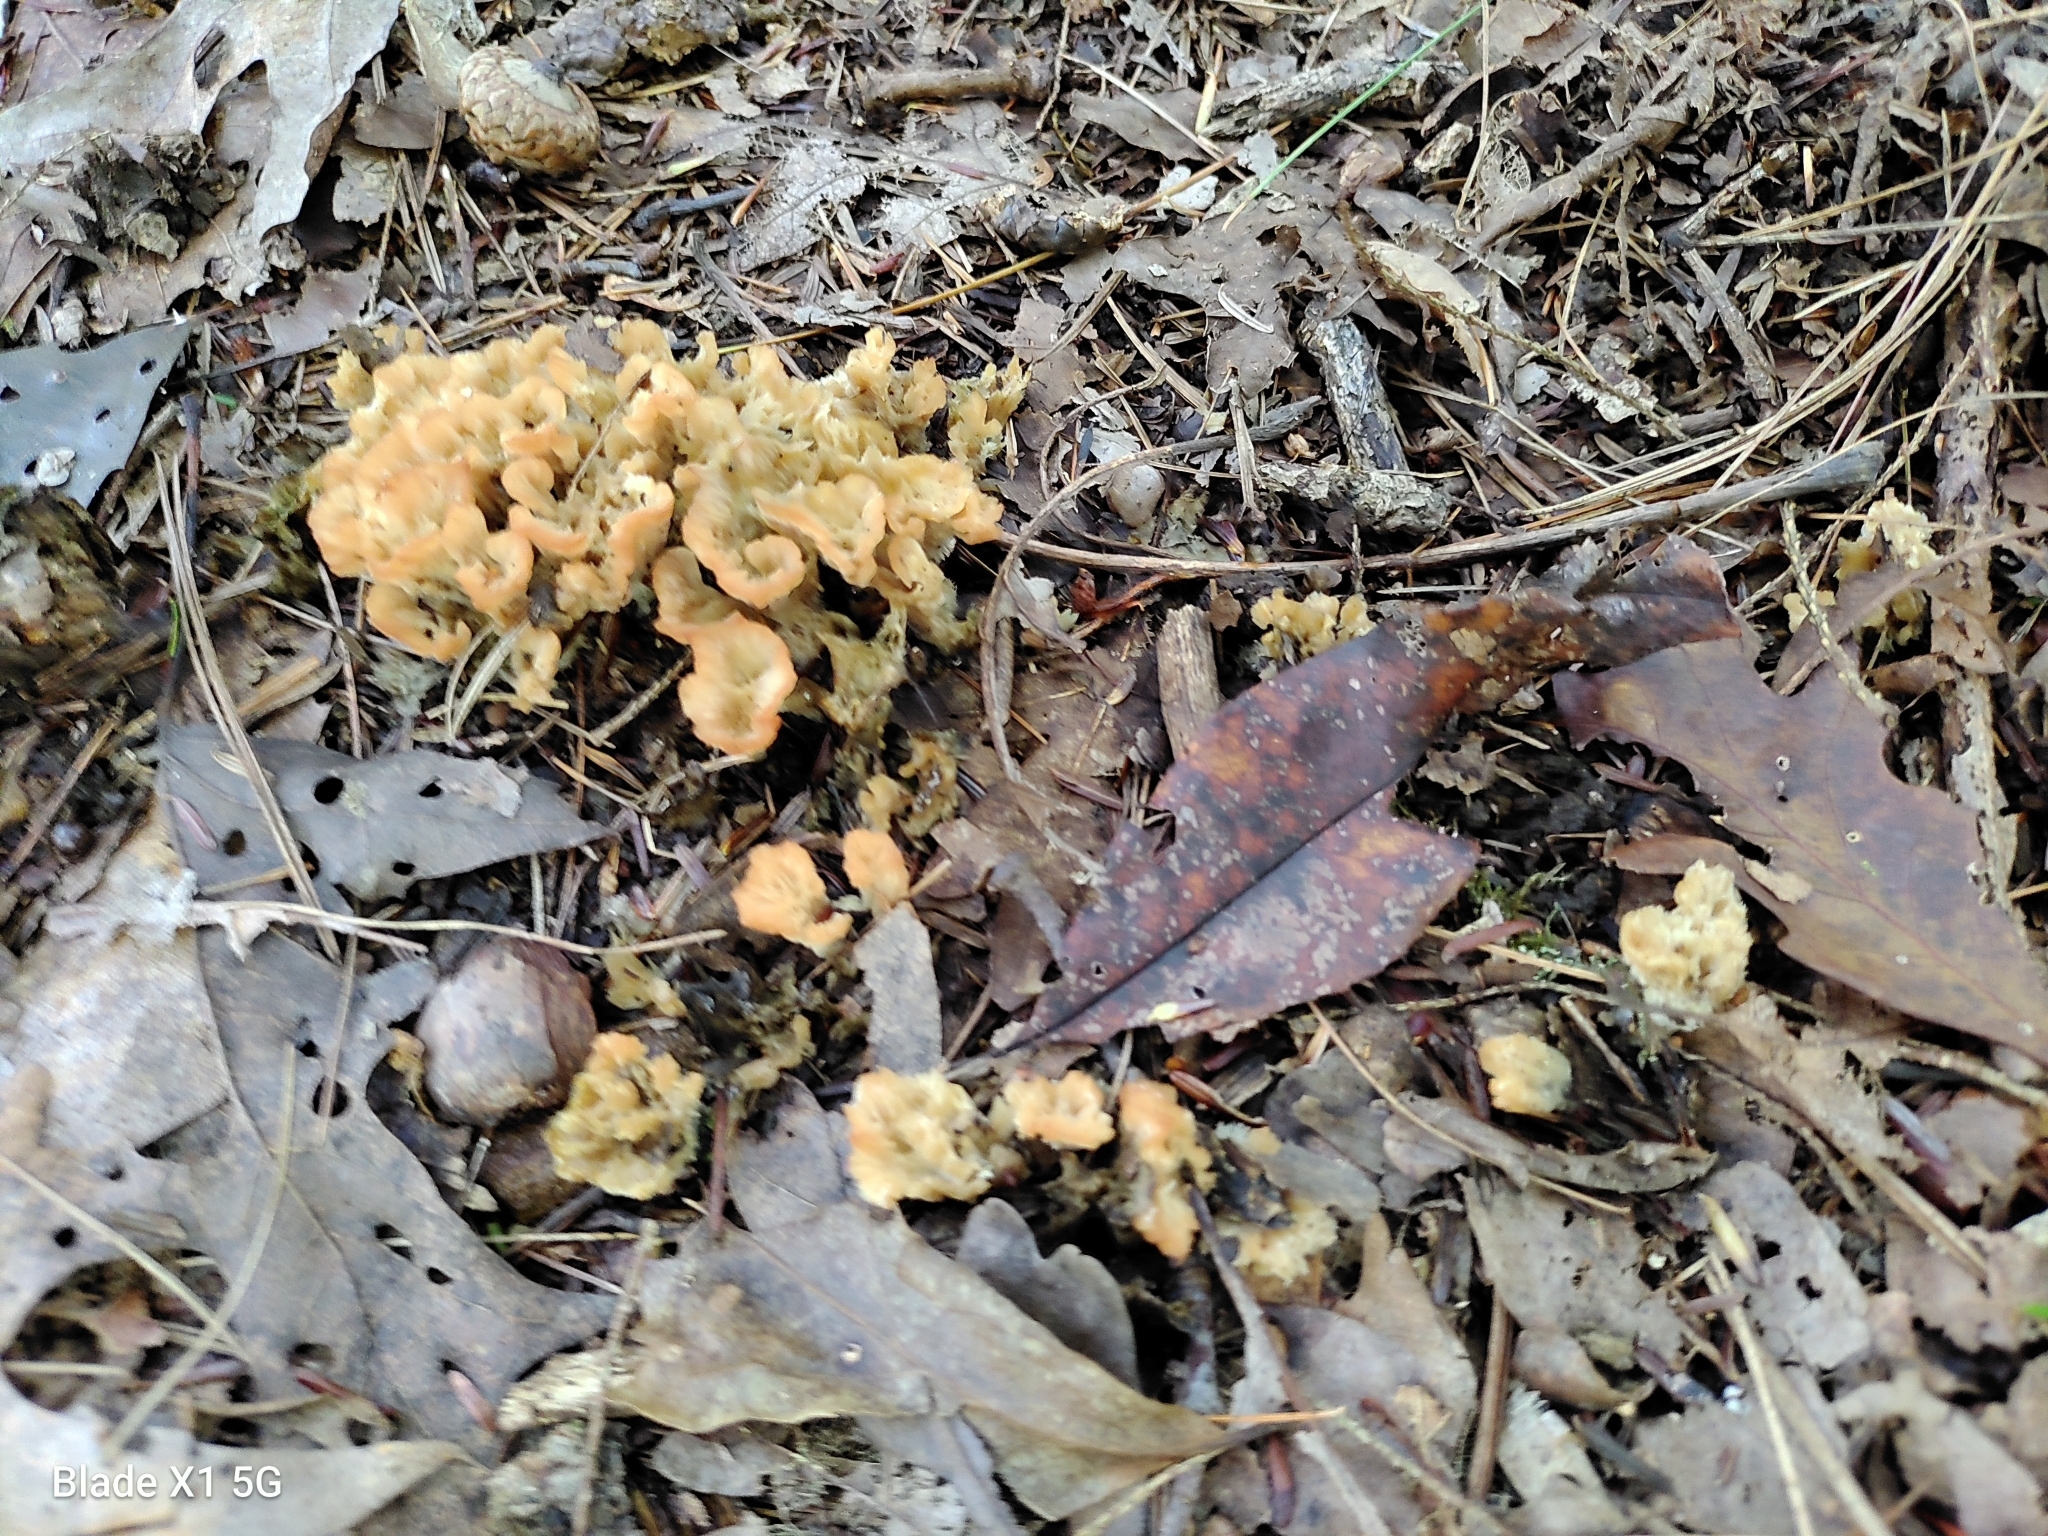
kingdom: Fungi
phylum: Basidiomycota
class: Agaricomycetes
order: Hymenochaetales
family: Rickenellaceae
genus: Cotylidia
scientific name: Cotylidia pannosa
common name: Woolly rosette
